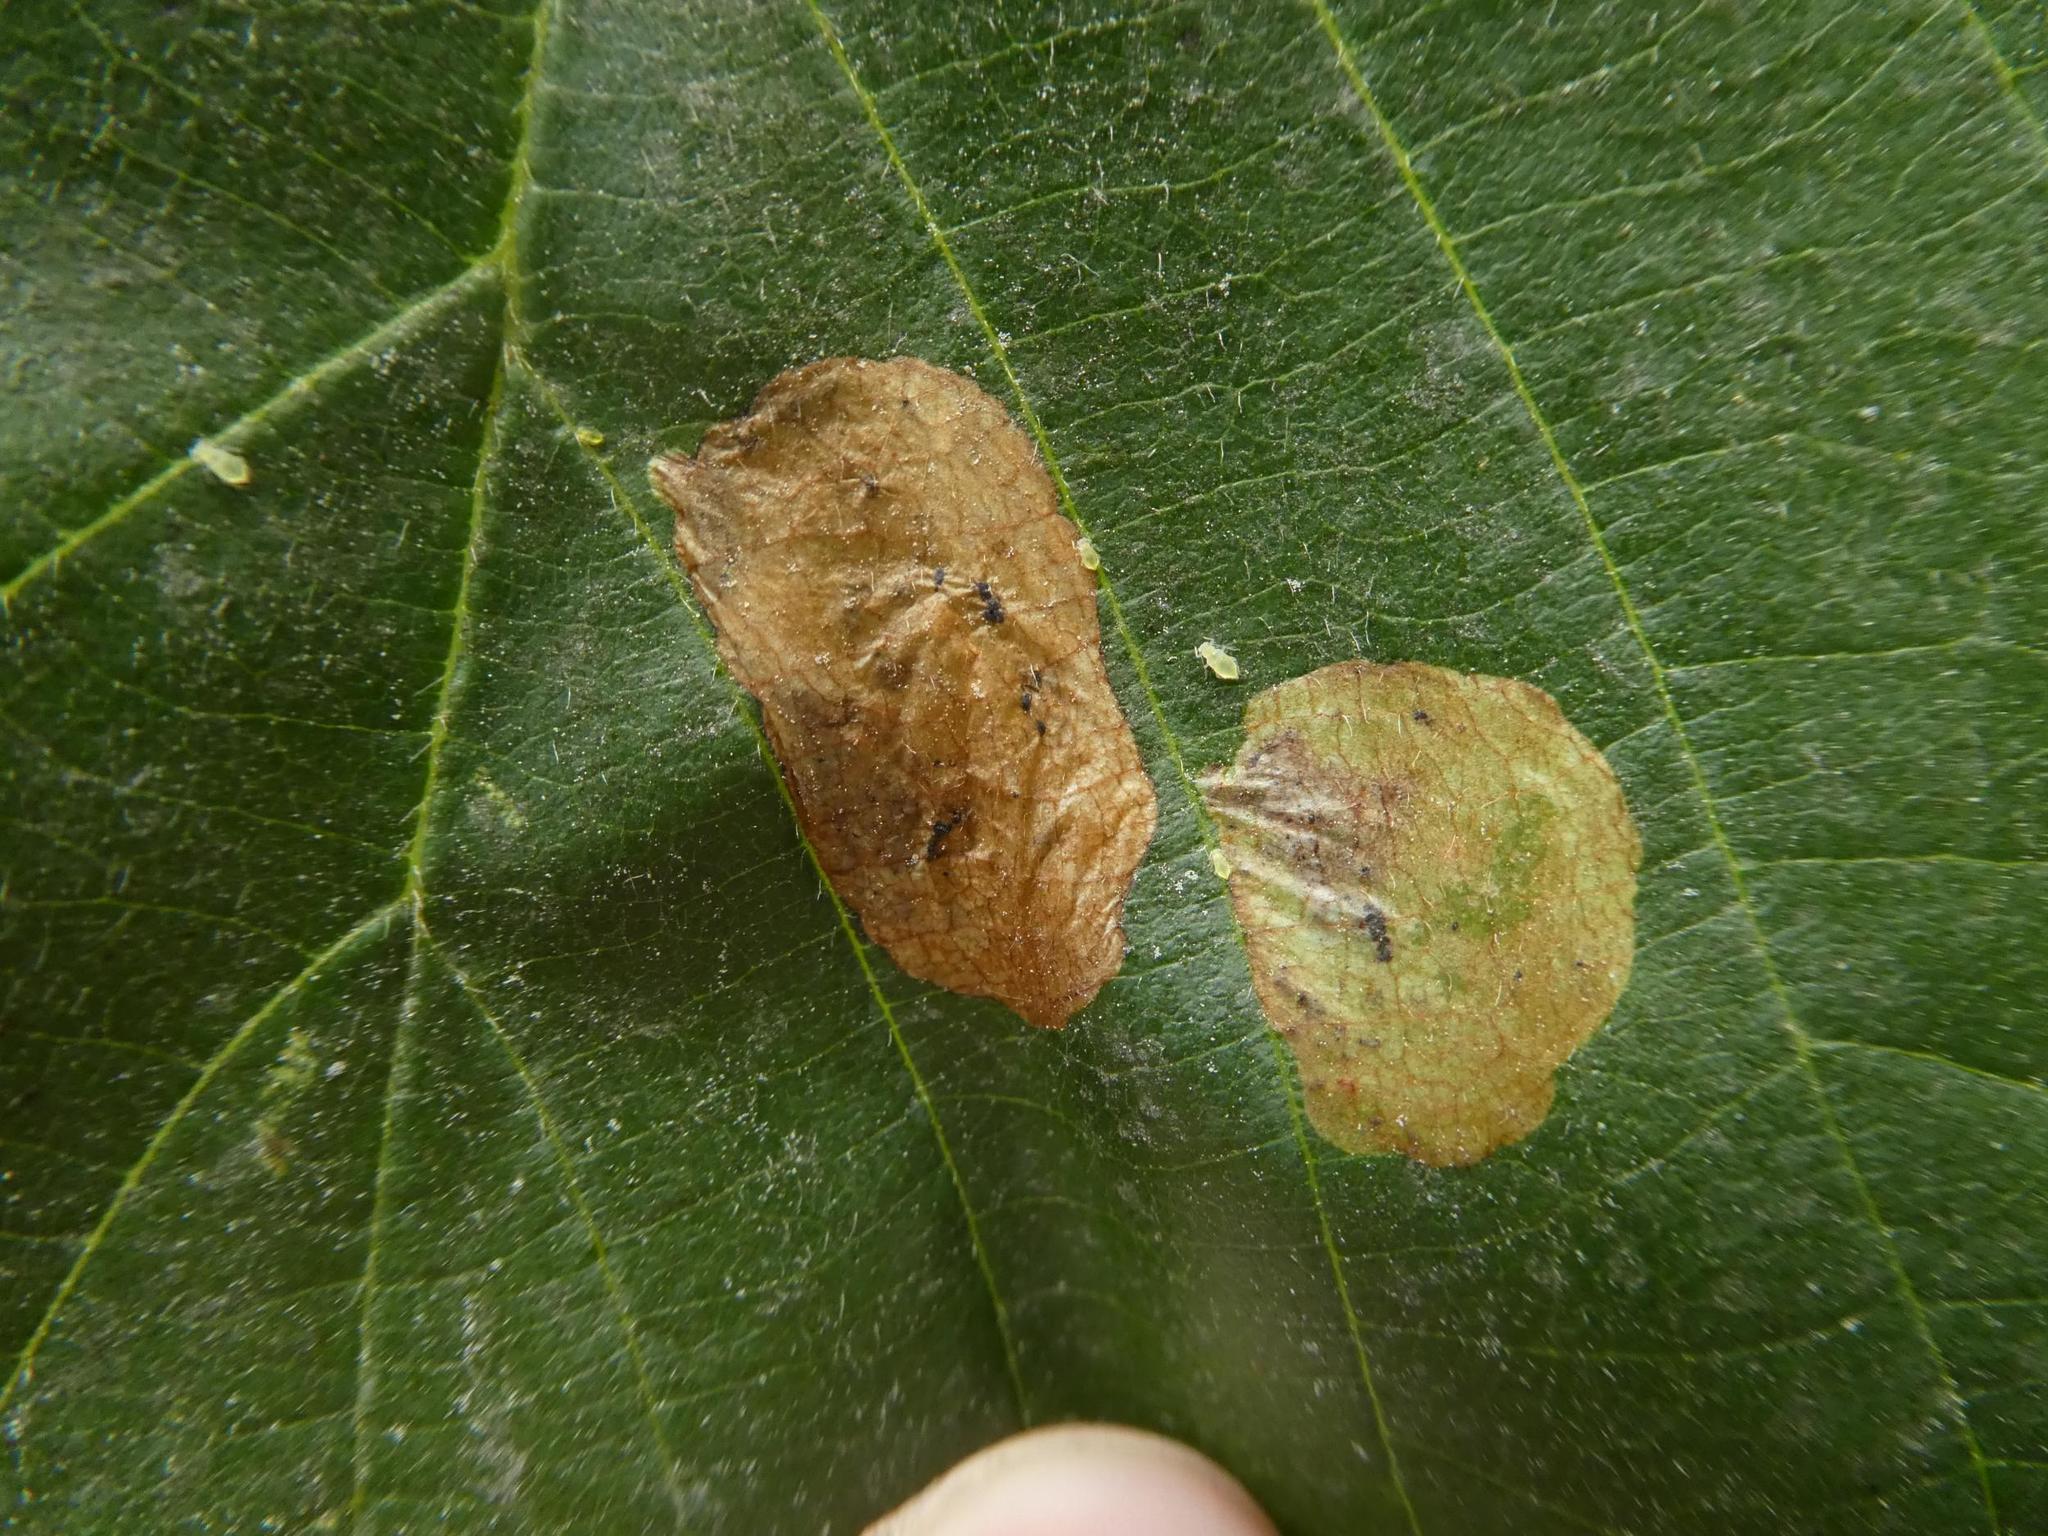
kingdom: Animalia
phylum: Arthropoda
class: Insecta
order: Hymenoptera
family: Tenthredinidae
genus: Fenusa
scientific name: Fenusa dohrnii
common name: European alder leafminer
